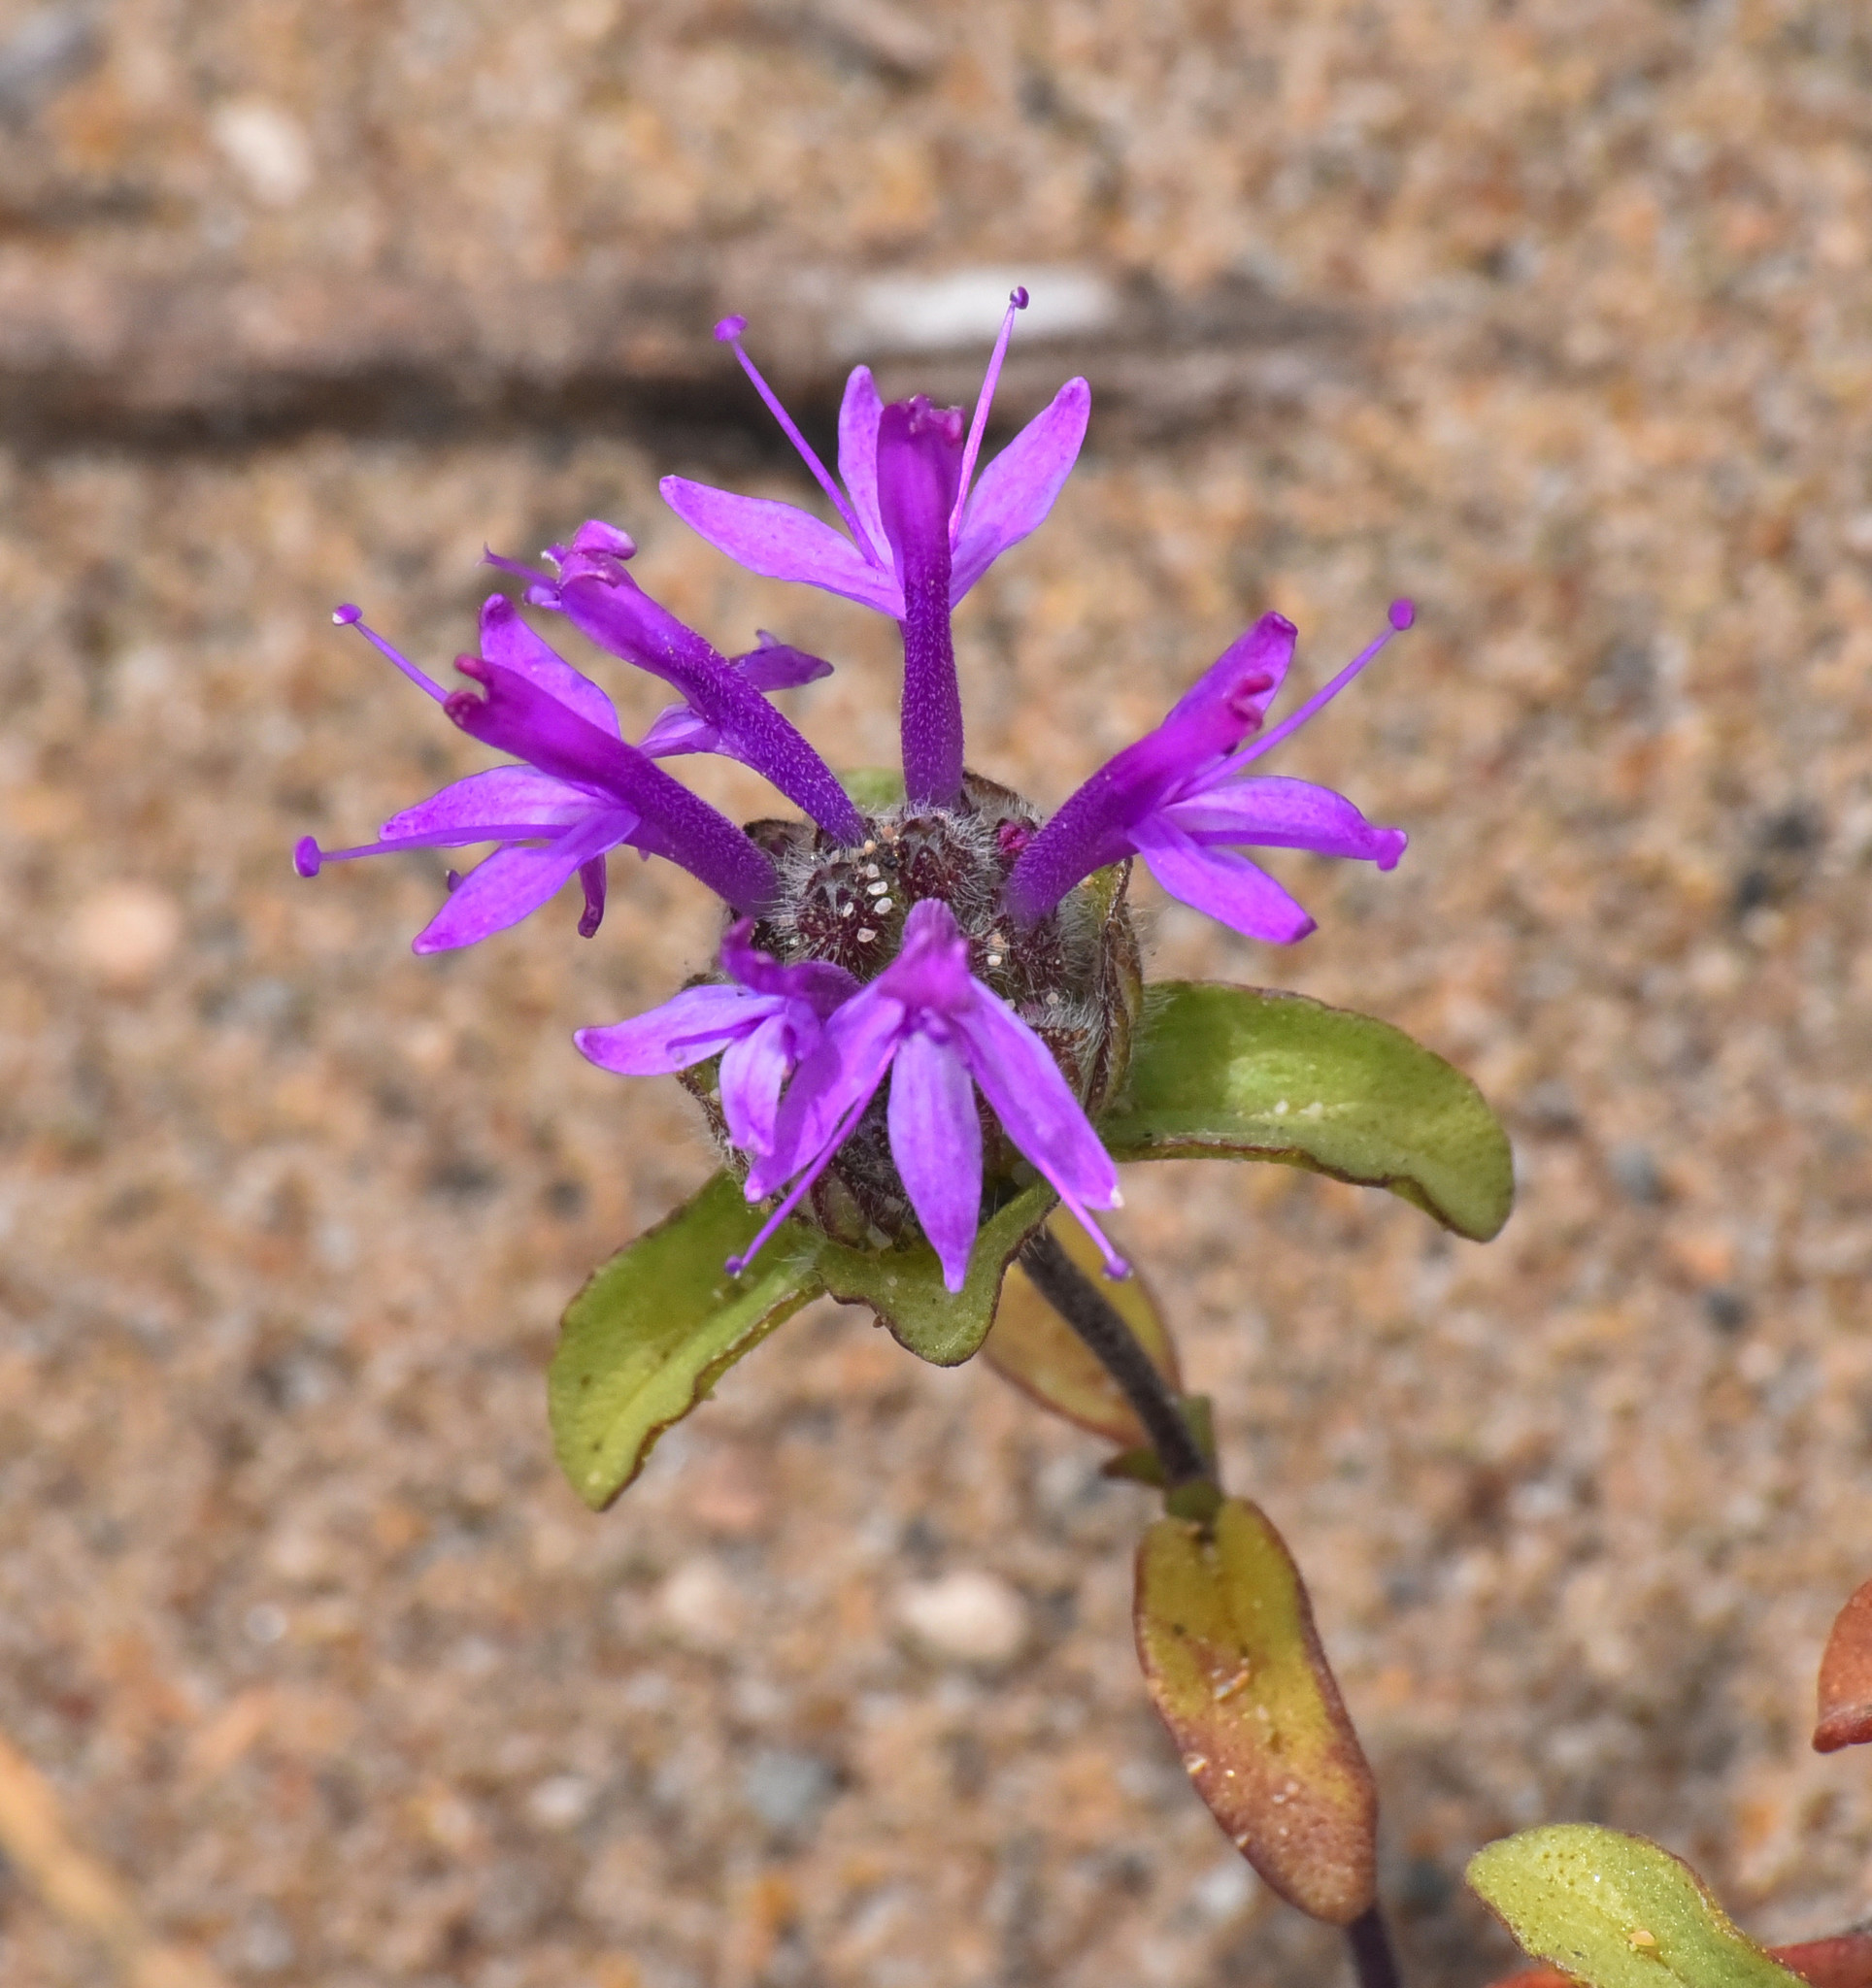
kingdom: Plantae
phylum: Tracheophyta
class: Magnoliopsida
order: Lamiales
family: Lamiaceae
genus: Monardella
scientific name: Monardella sinuata
